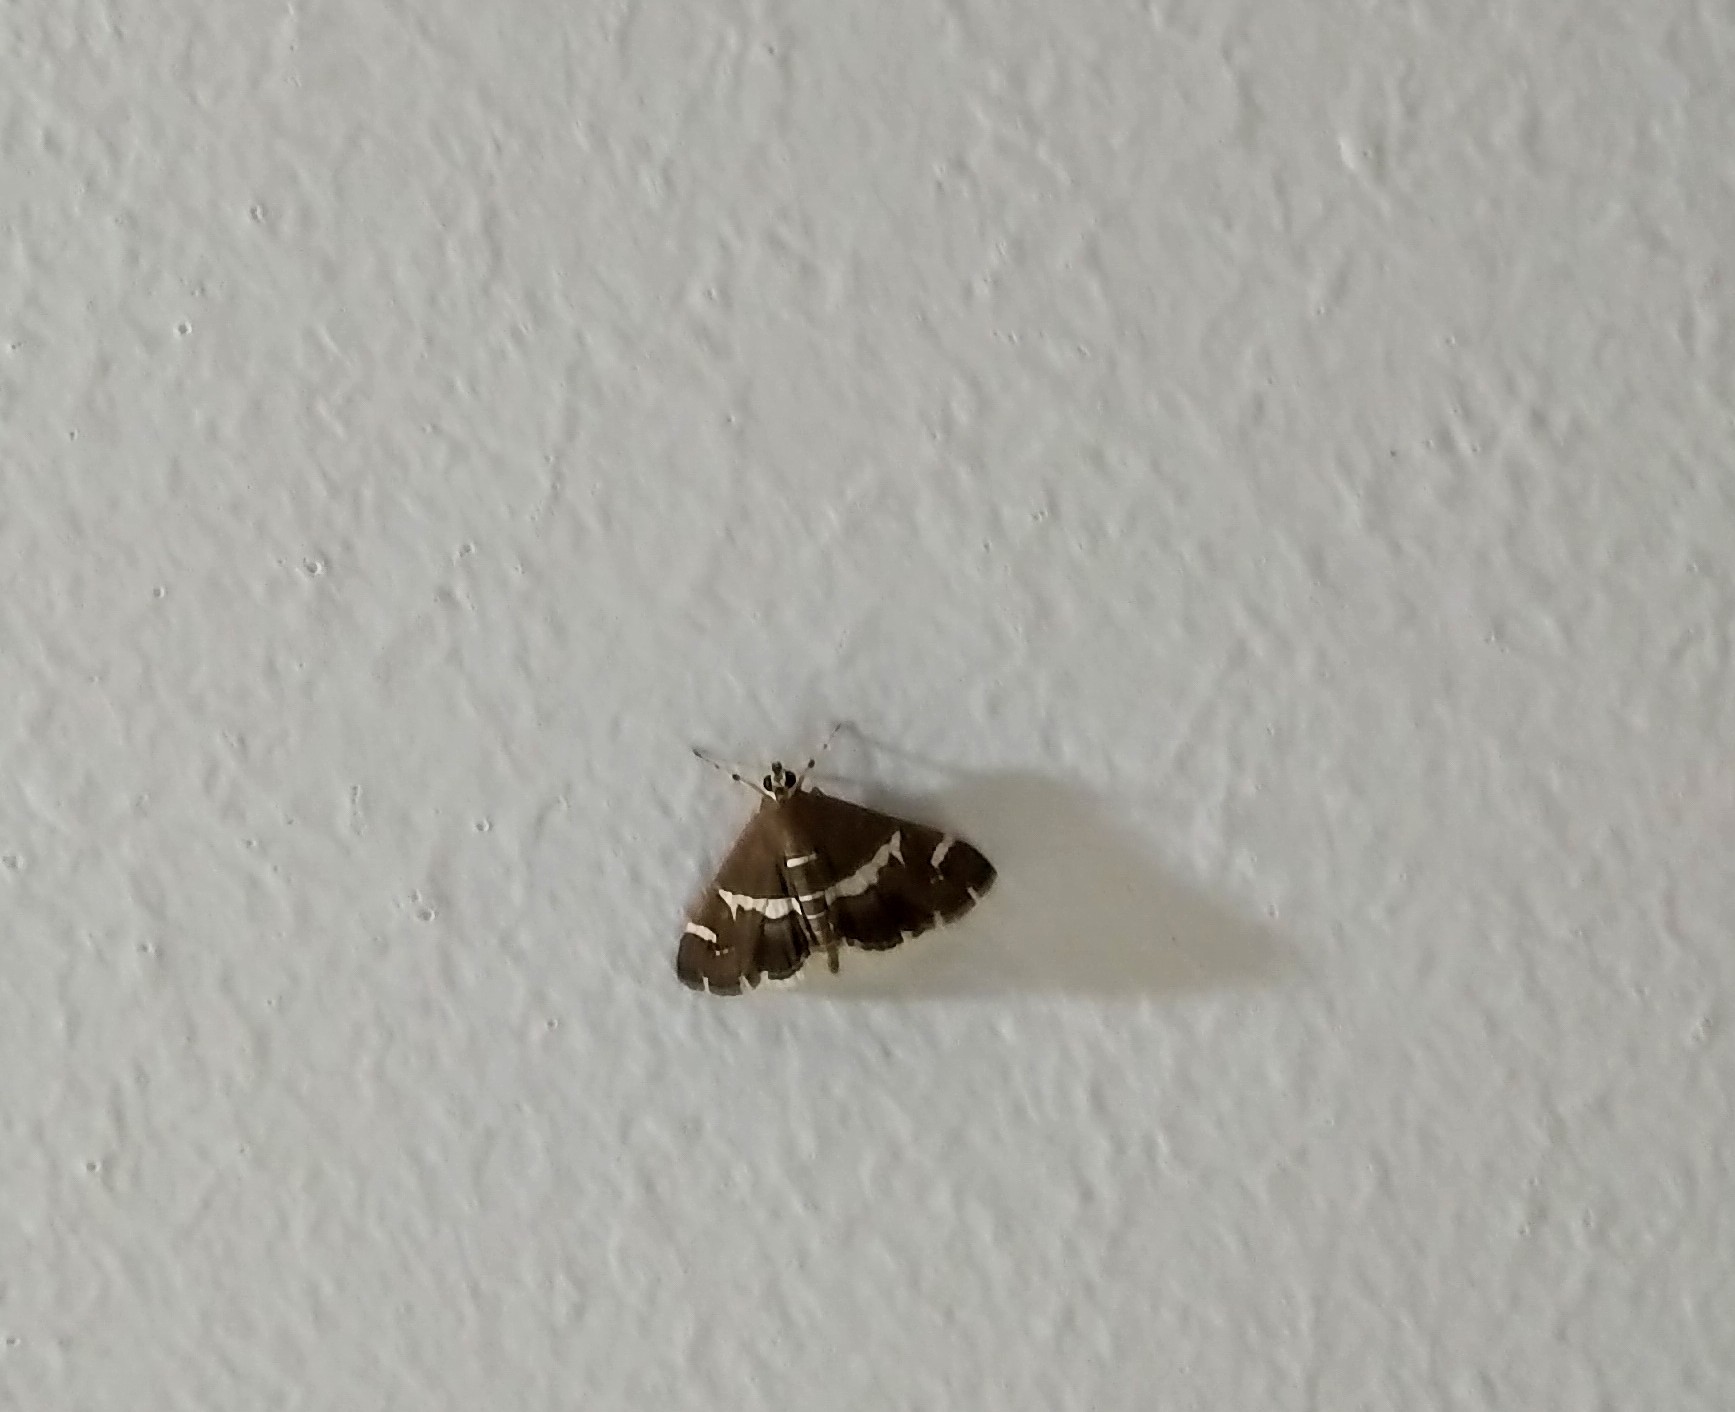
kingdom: Animalia
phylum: Arthropoda
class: Insecta
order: Lepidoptera
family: Crambidae
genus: Spoladea
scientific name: Spoladea recurvalis
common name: Beet webworm moth
